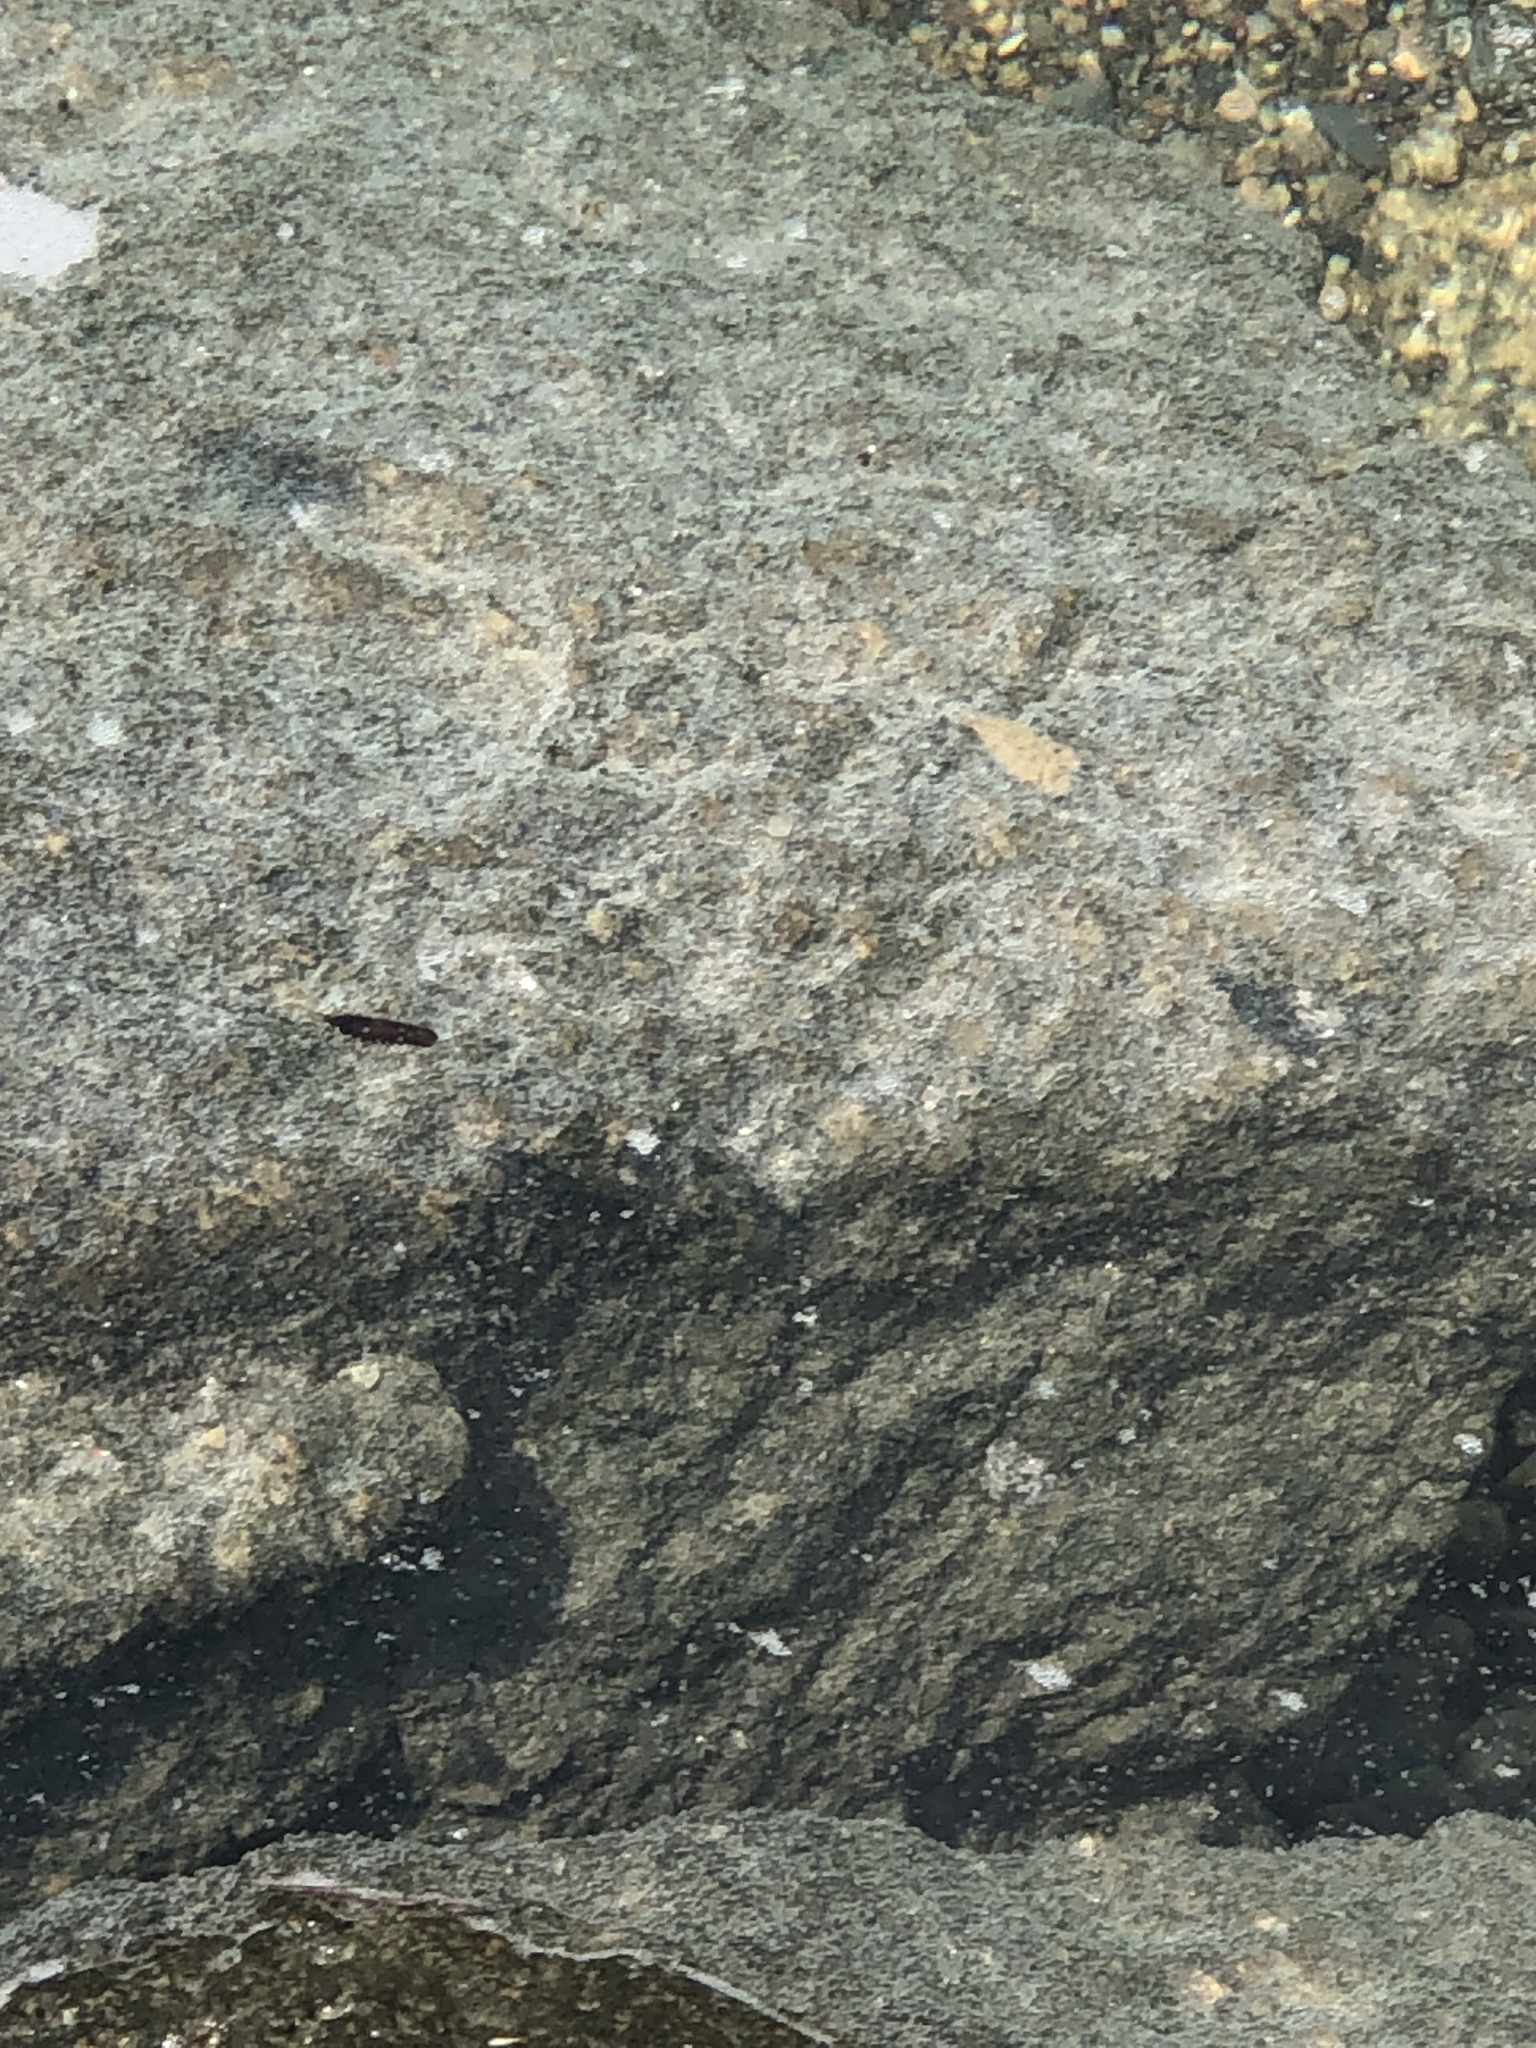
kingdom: Animalia
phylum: Arthropoda
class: Malacostraca
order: Isopoda
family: Idoteidae
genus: Idotea
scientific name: Idotea balthica
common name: Baltic isopod
